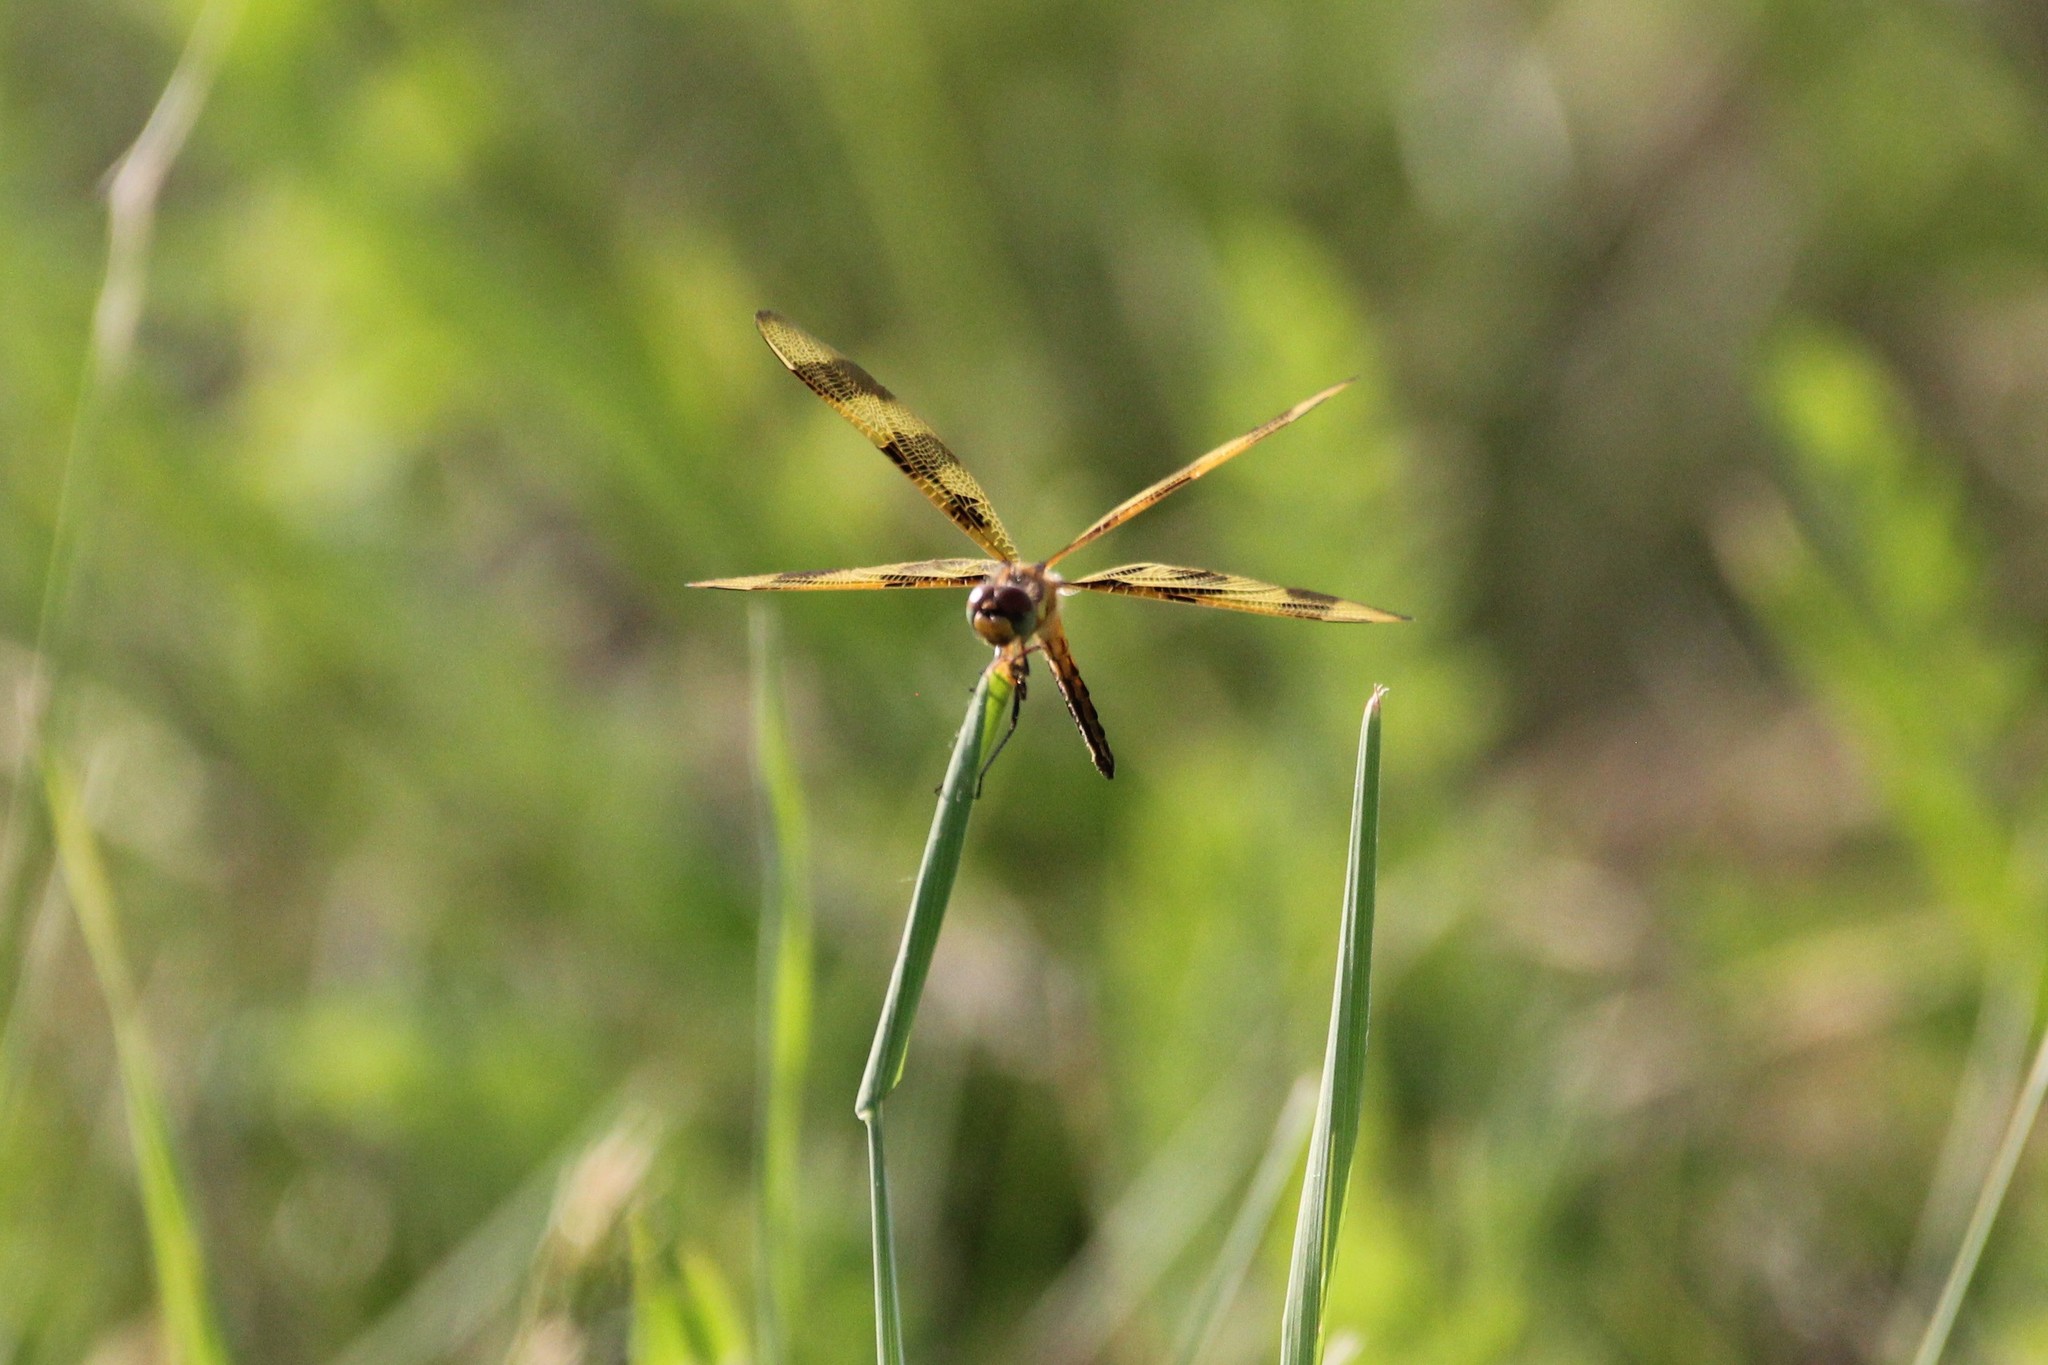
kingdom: Animalia
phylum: Arthropoda
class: Insecta
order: Odonata
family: Libellulidae
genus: Celithemis
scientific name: Celithemis eponina
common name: Halloween pennant
